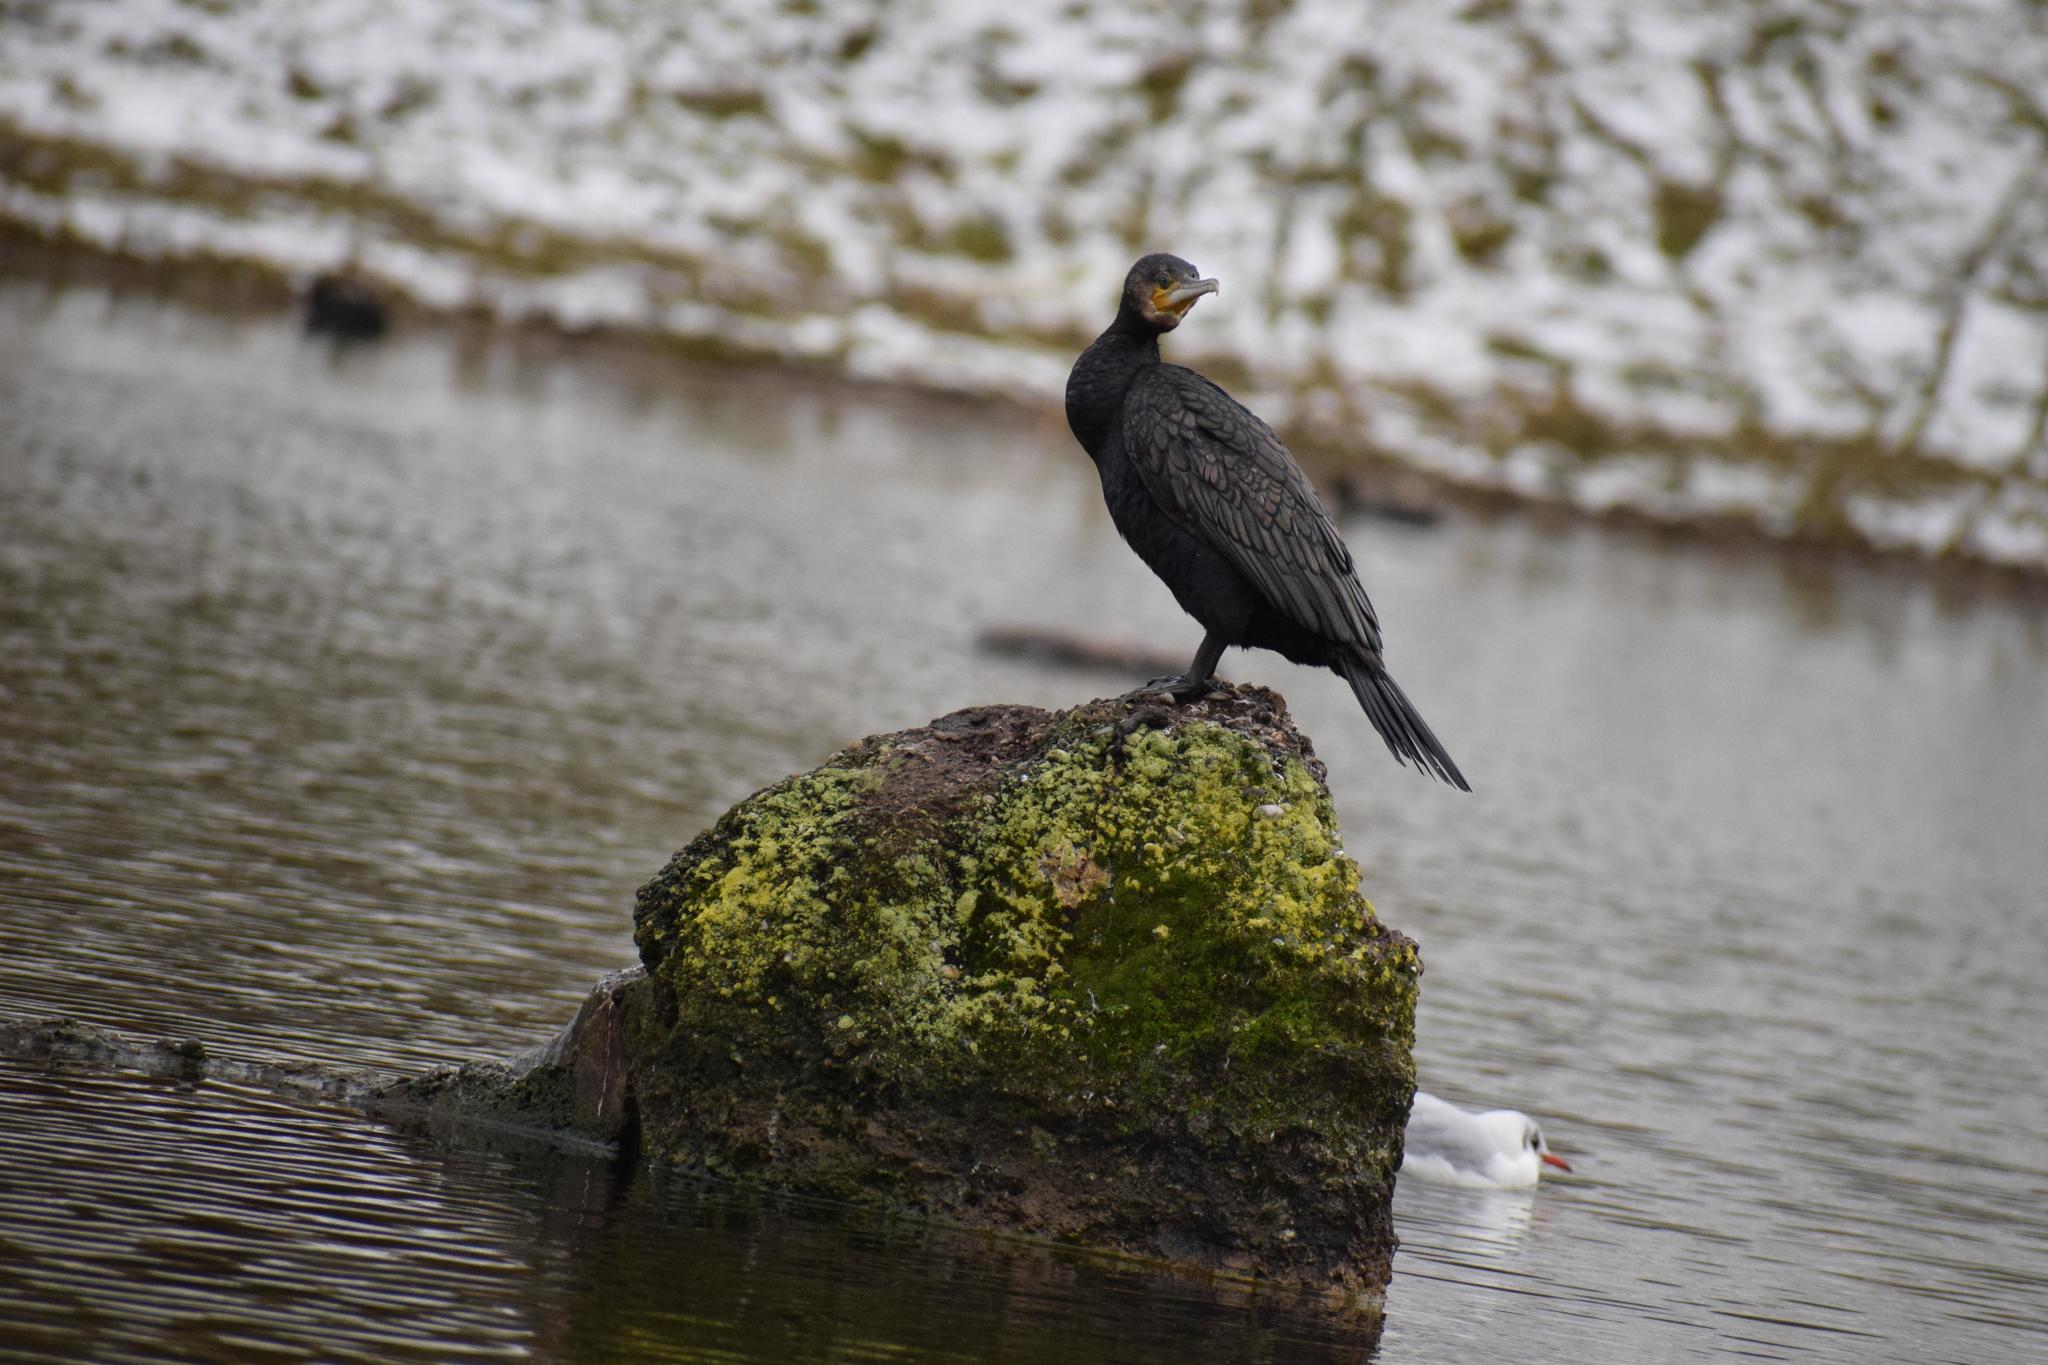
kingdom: Animalia
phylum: Chordata
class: Aves
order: Suliformes
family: Phalacrocoracidae
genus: Phalacrocorax
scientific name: Phalacrocorax carbo
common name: Great cormorant
